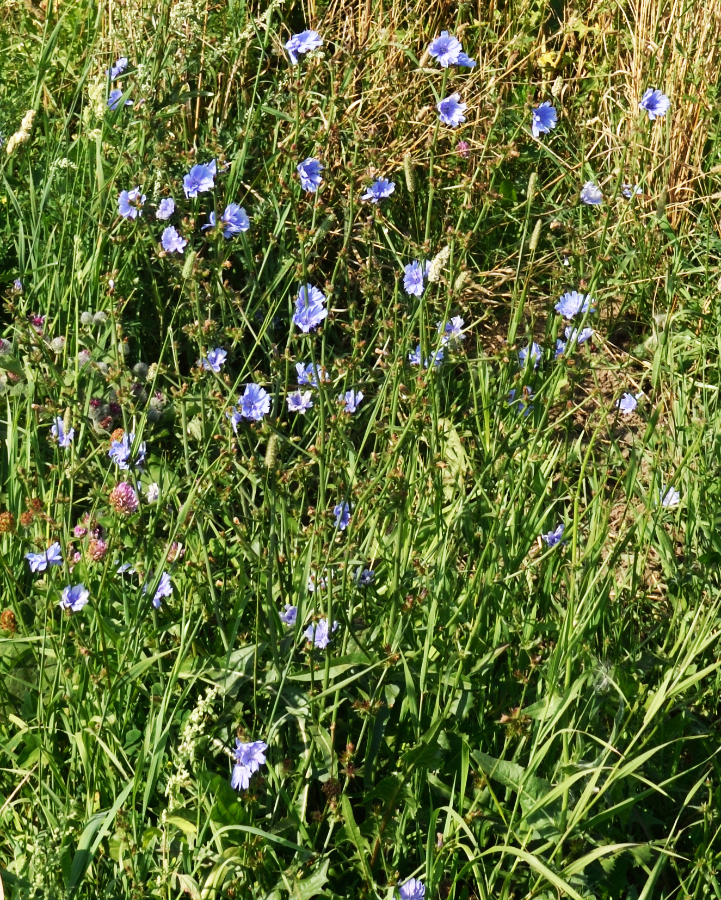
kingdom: Plantae
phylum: Tracheophyta
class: Magnoliopsida
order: Asterales
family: Asteraceae
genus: Cichorium
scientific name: Cichorium intybus
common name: Chicory
